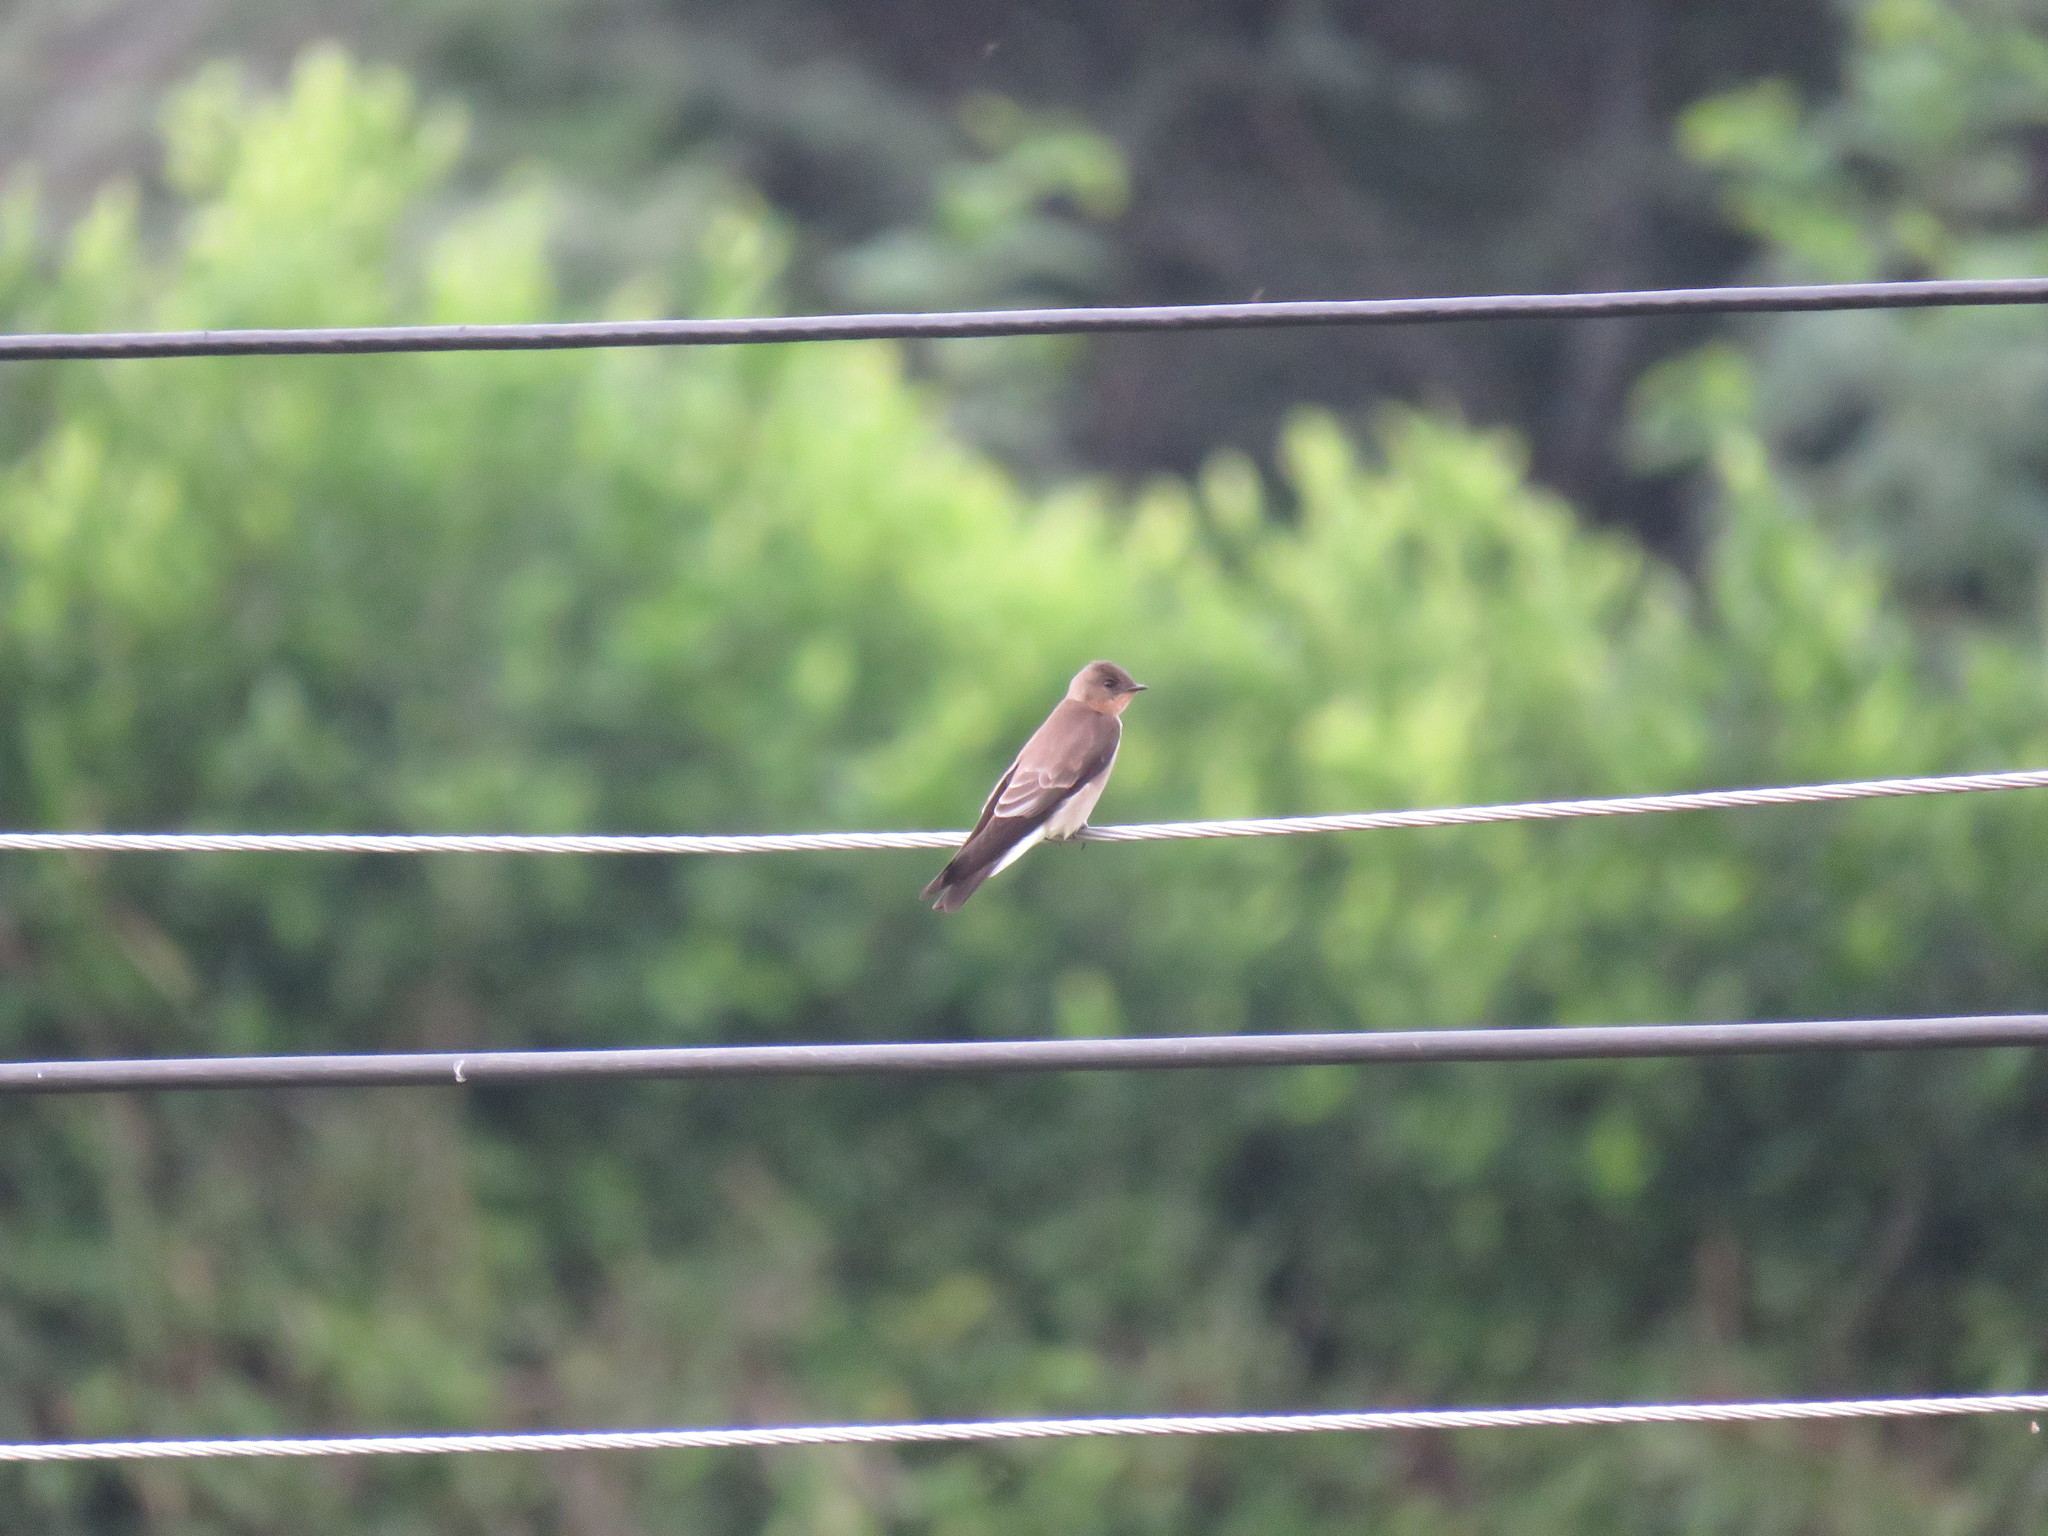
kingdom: Animalia
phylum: Chordata
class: Aves
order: Passeriformes
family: Hirundinidae
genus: Stelgidopteryx
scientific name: Stelgidopteryx ruficollis
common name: Southern rough-winged swallow
